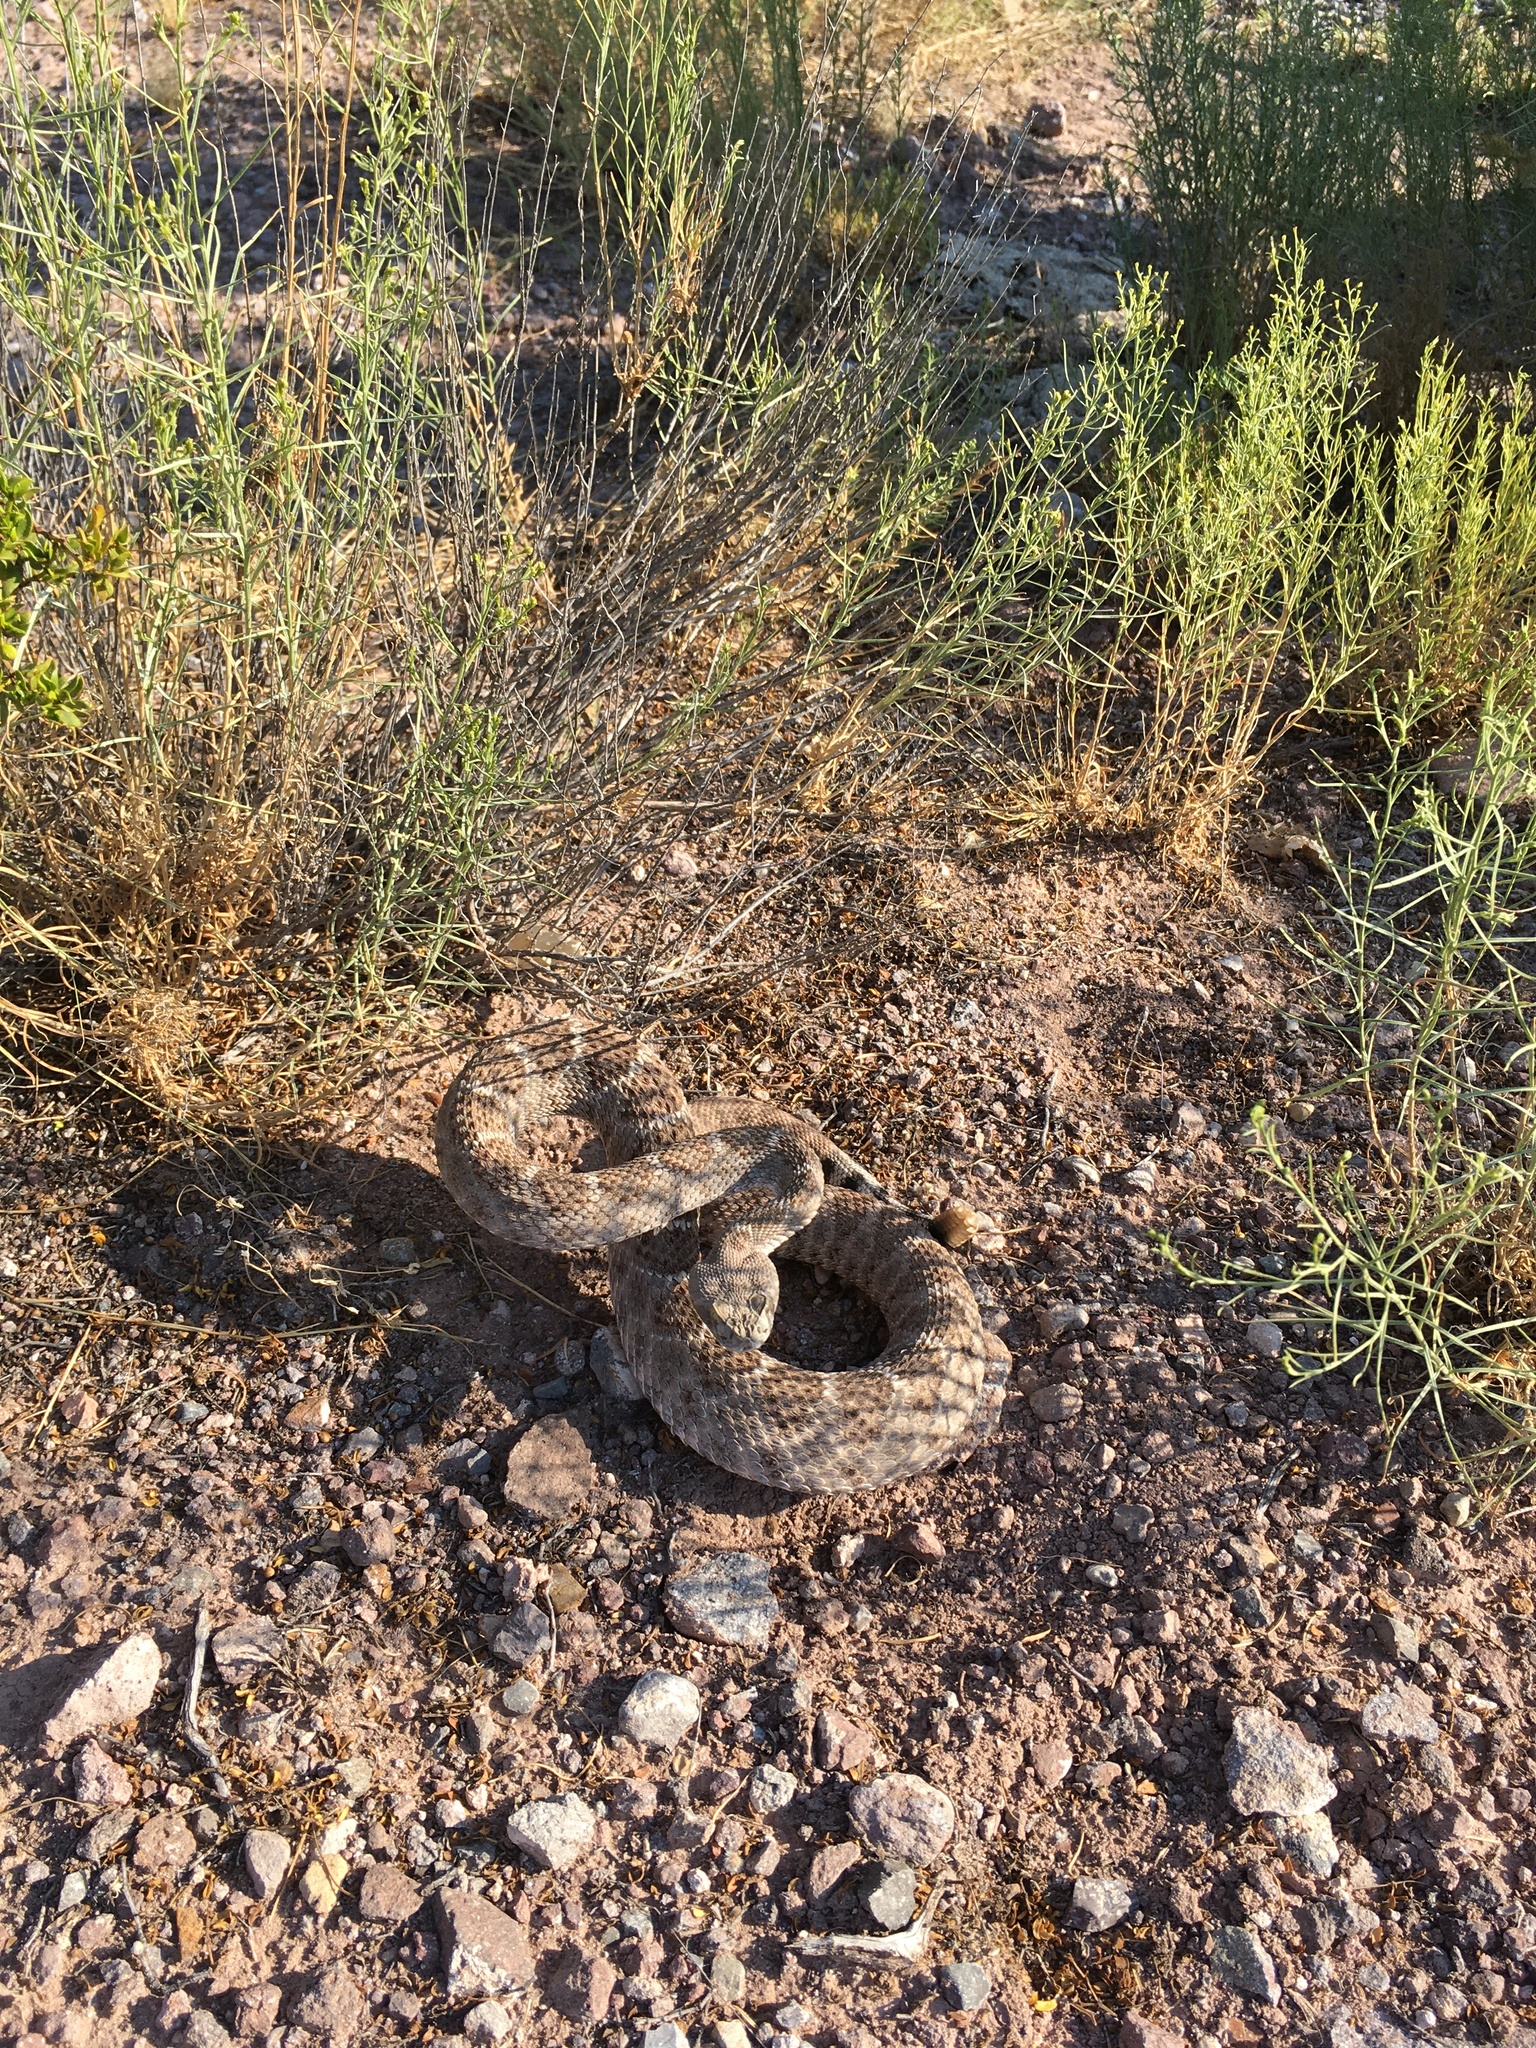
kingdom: Animalia
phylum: Chordata
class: Squamata
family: Viperidae
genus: Crotalus
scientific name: Crotalus atrox
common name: Western diamond-backed rattlesnake
